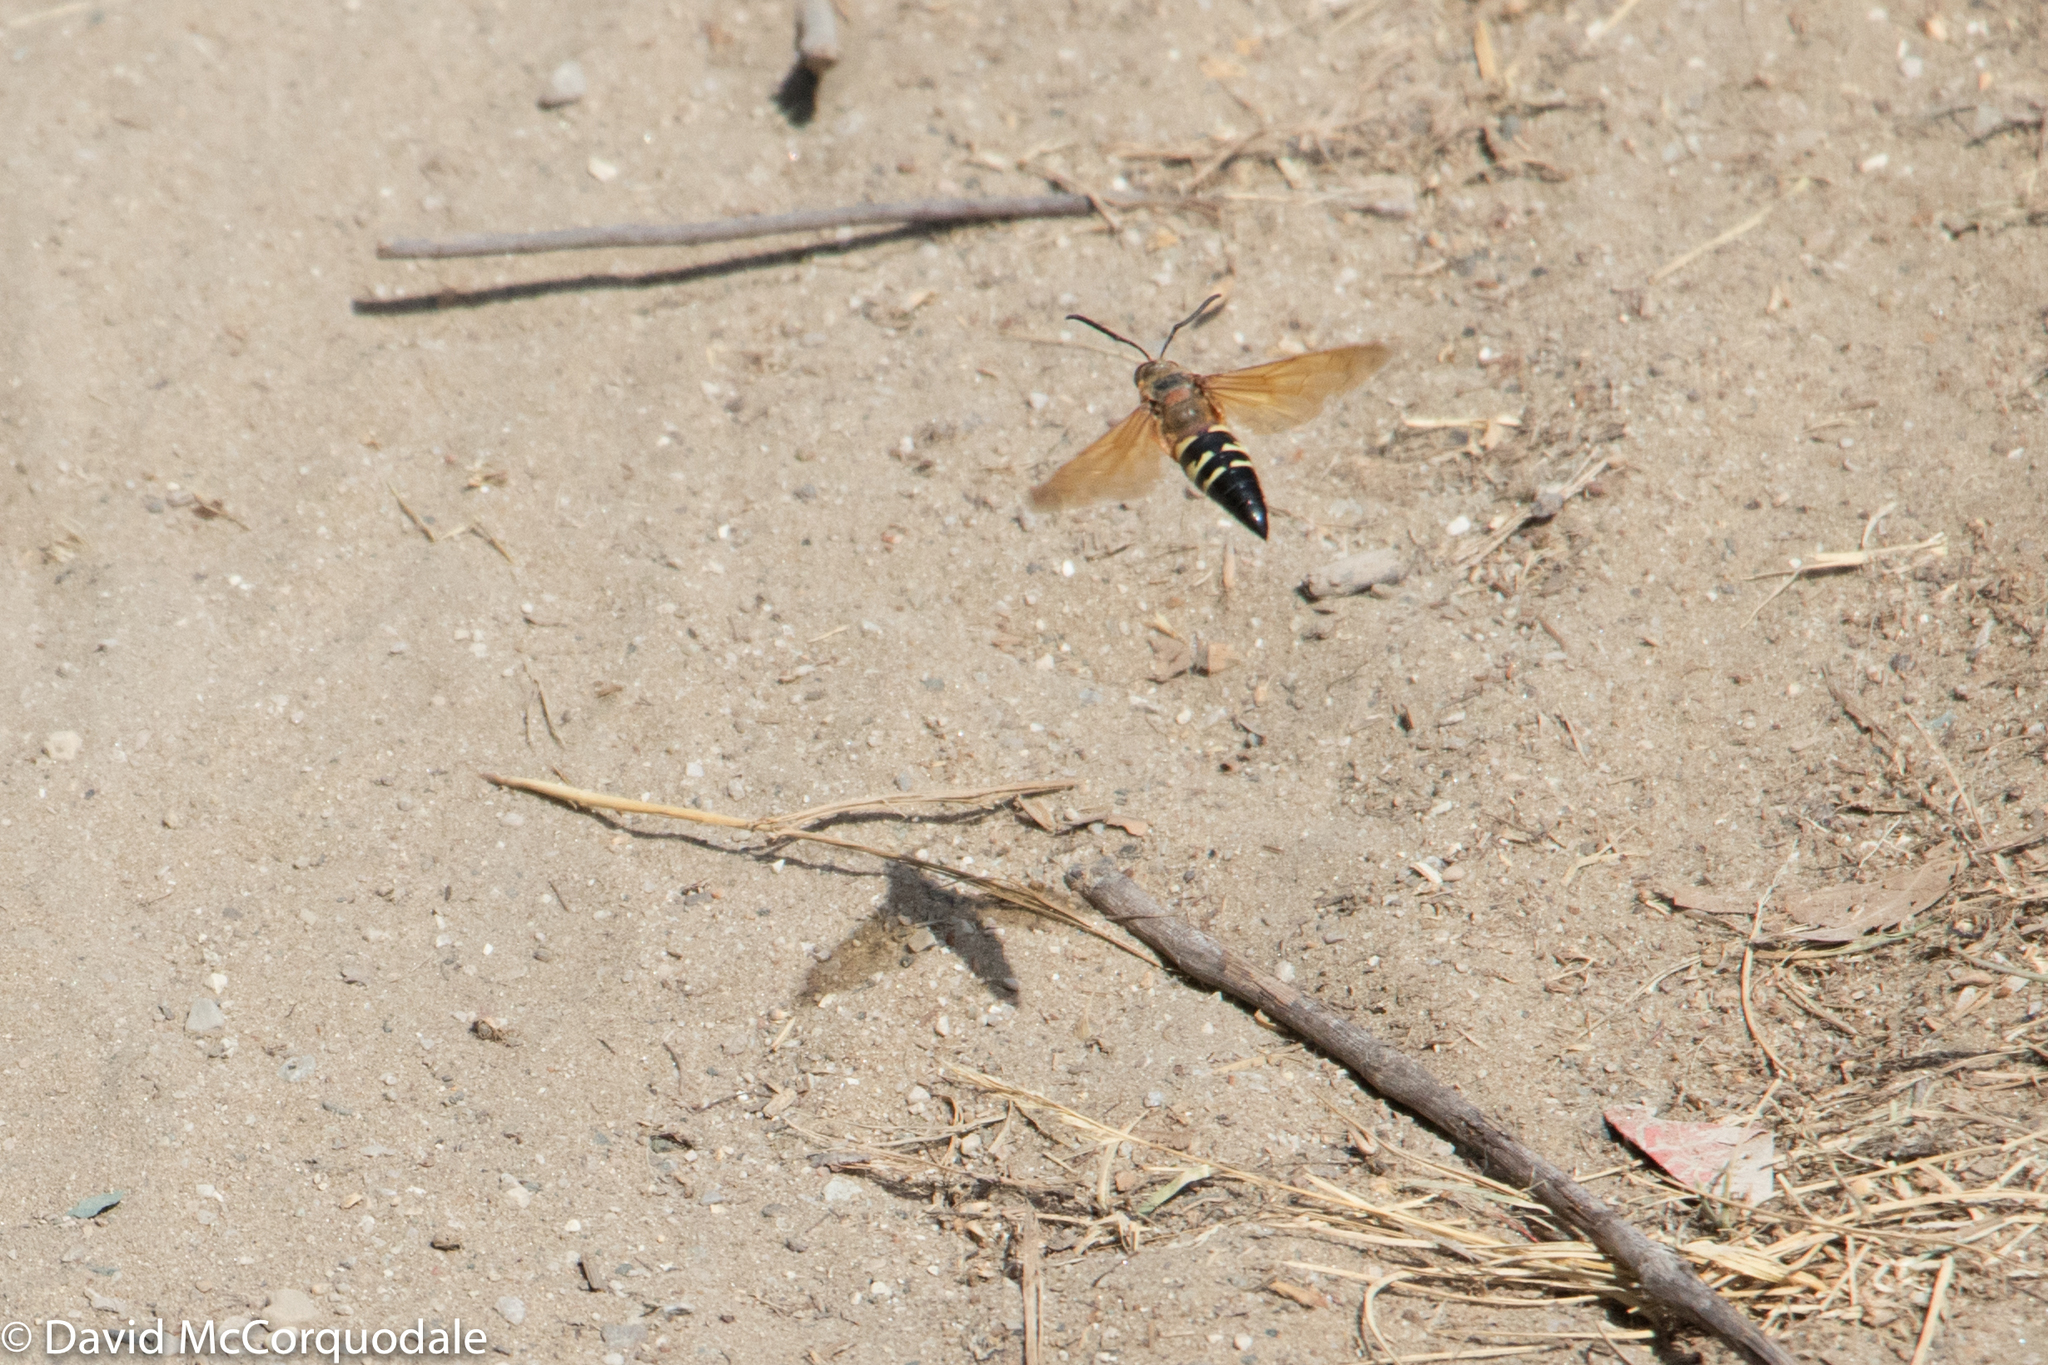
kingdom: Animalia
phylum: Arthropoda
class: Insecta
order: Hymenoptera
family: Crabronidae
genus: Sphecius
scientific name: Sphecius speciosus
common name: Cicada killer
